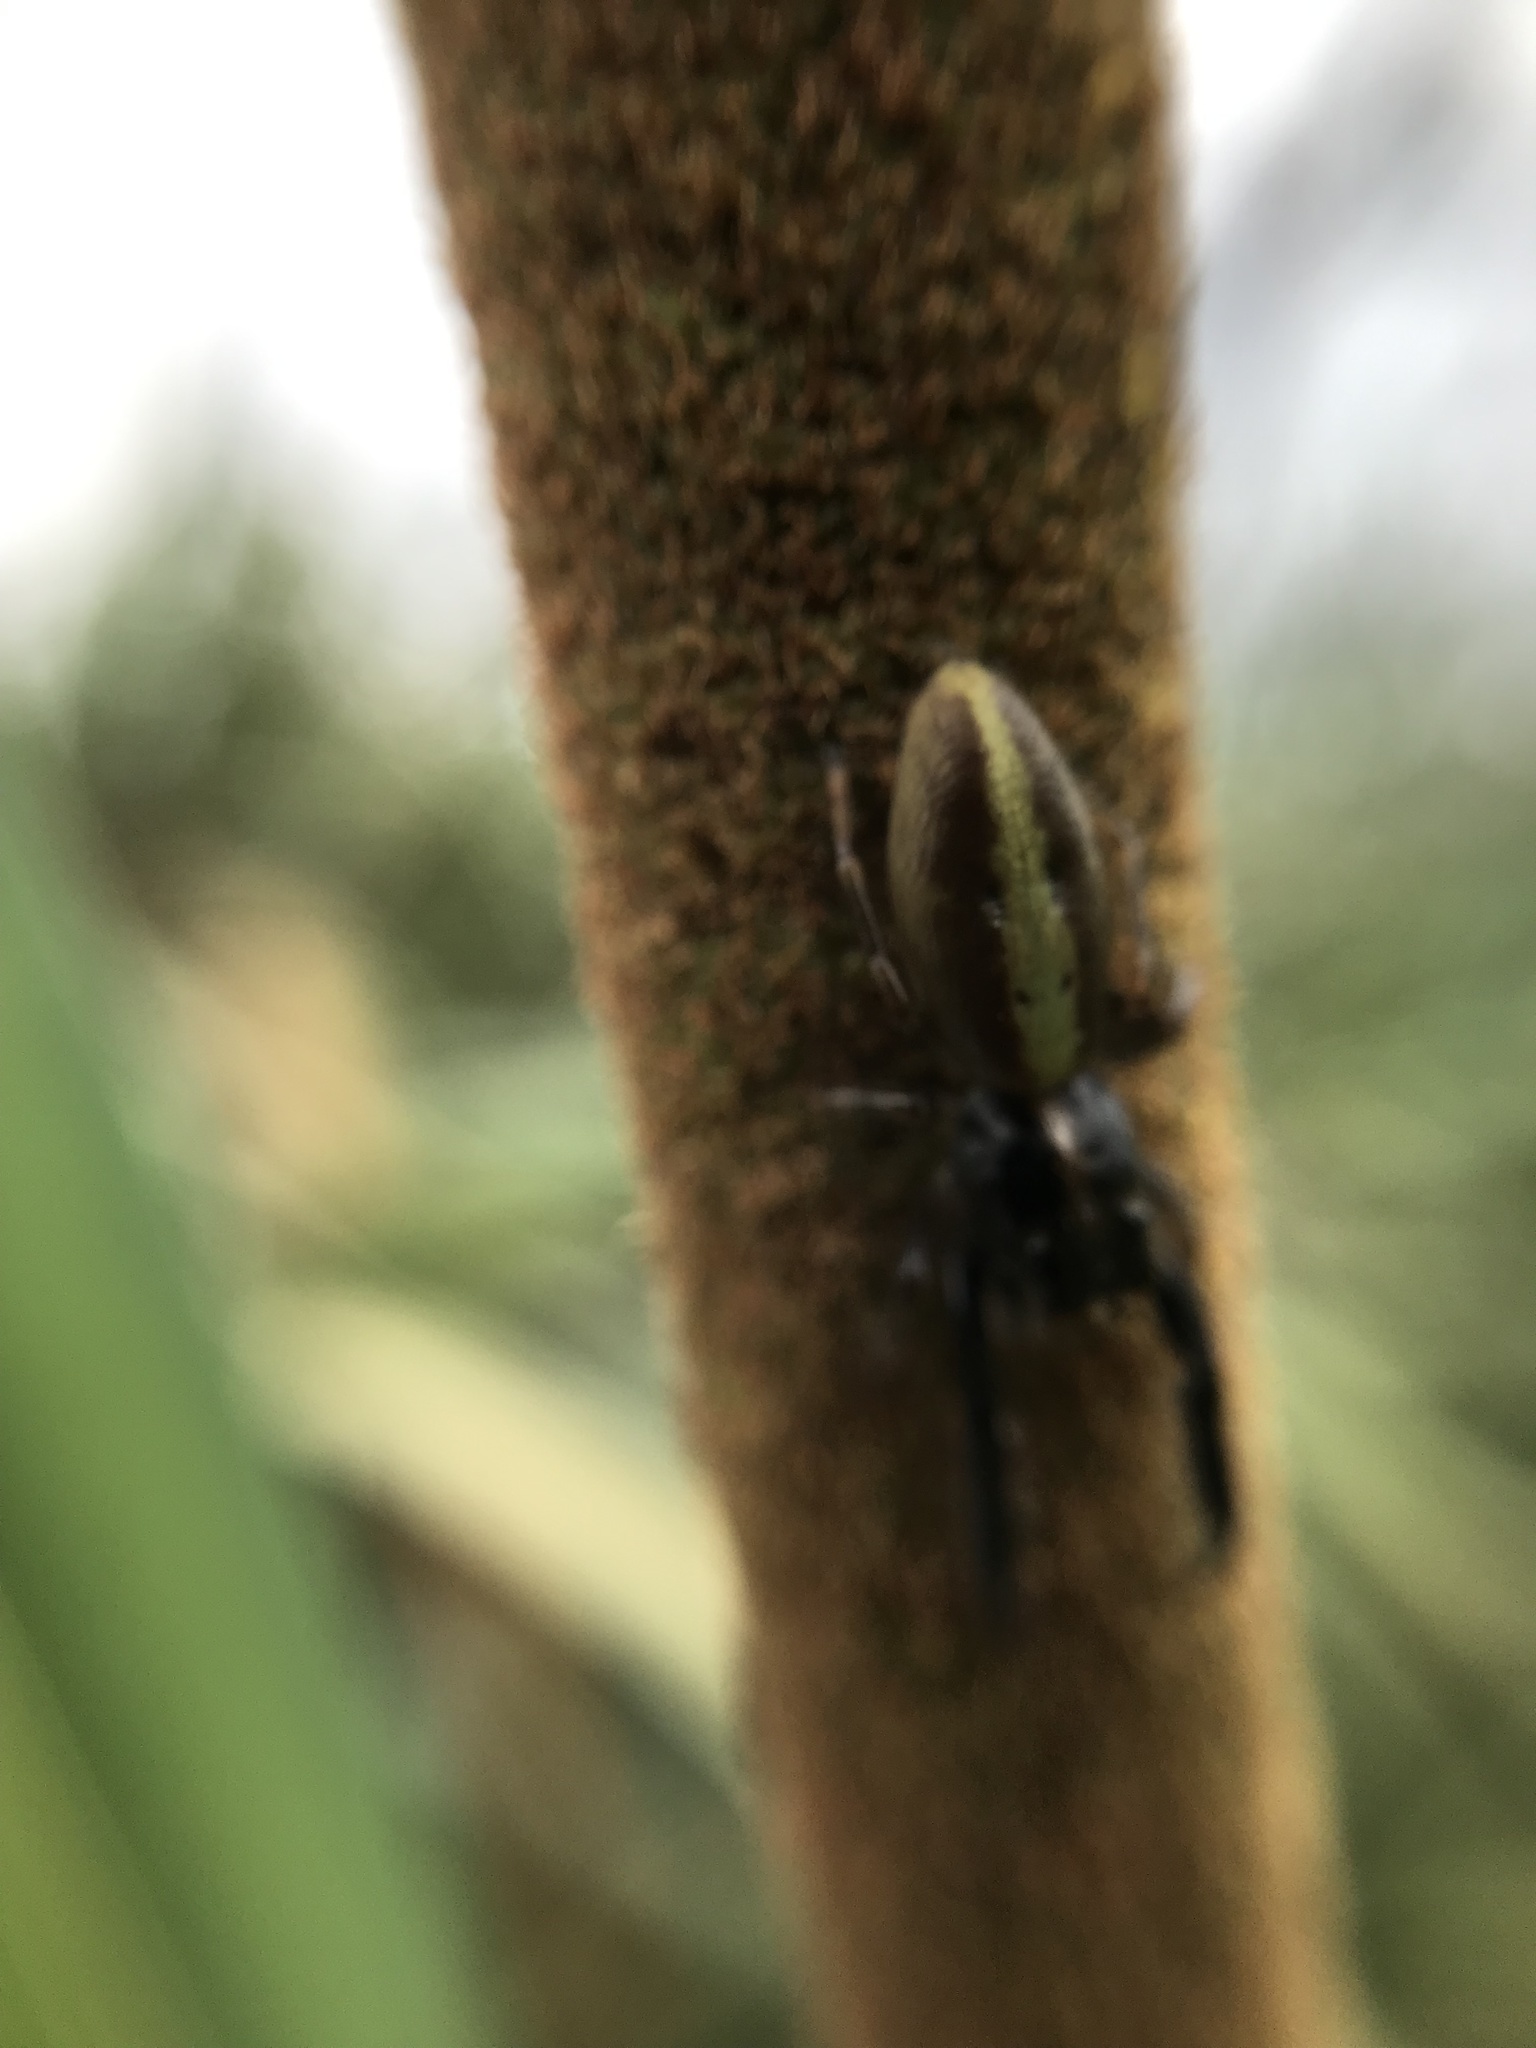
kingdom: Animalia
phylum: Arthropoda
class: Arachnida
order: Araneae
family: Salticidae
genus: Trite
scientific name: Trite planiceps
